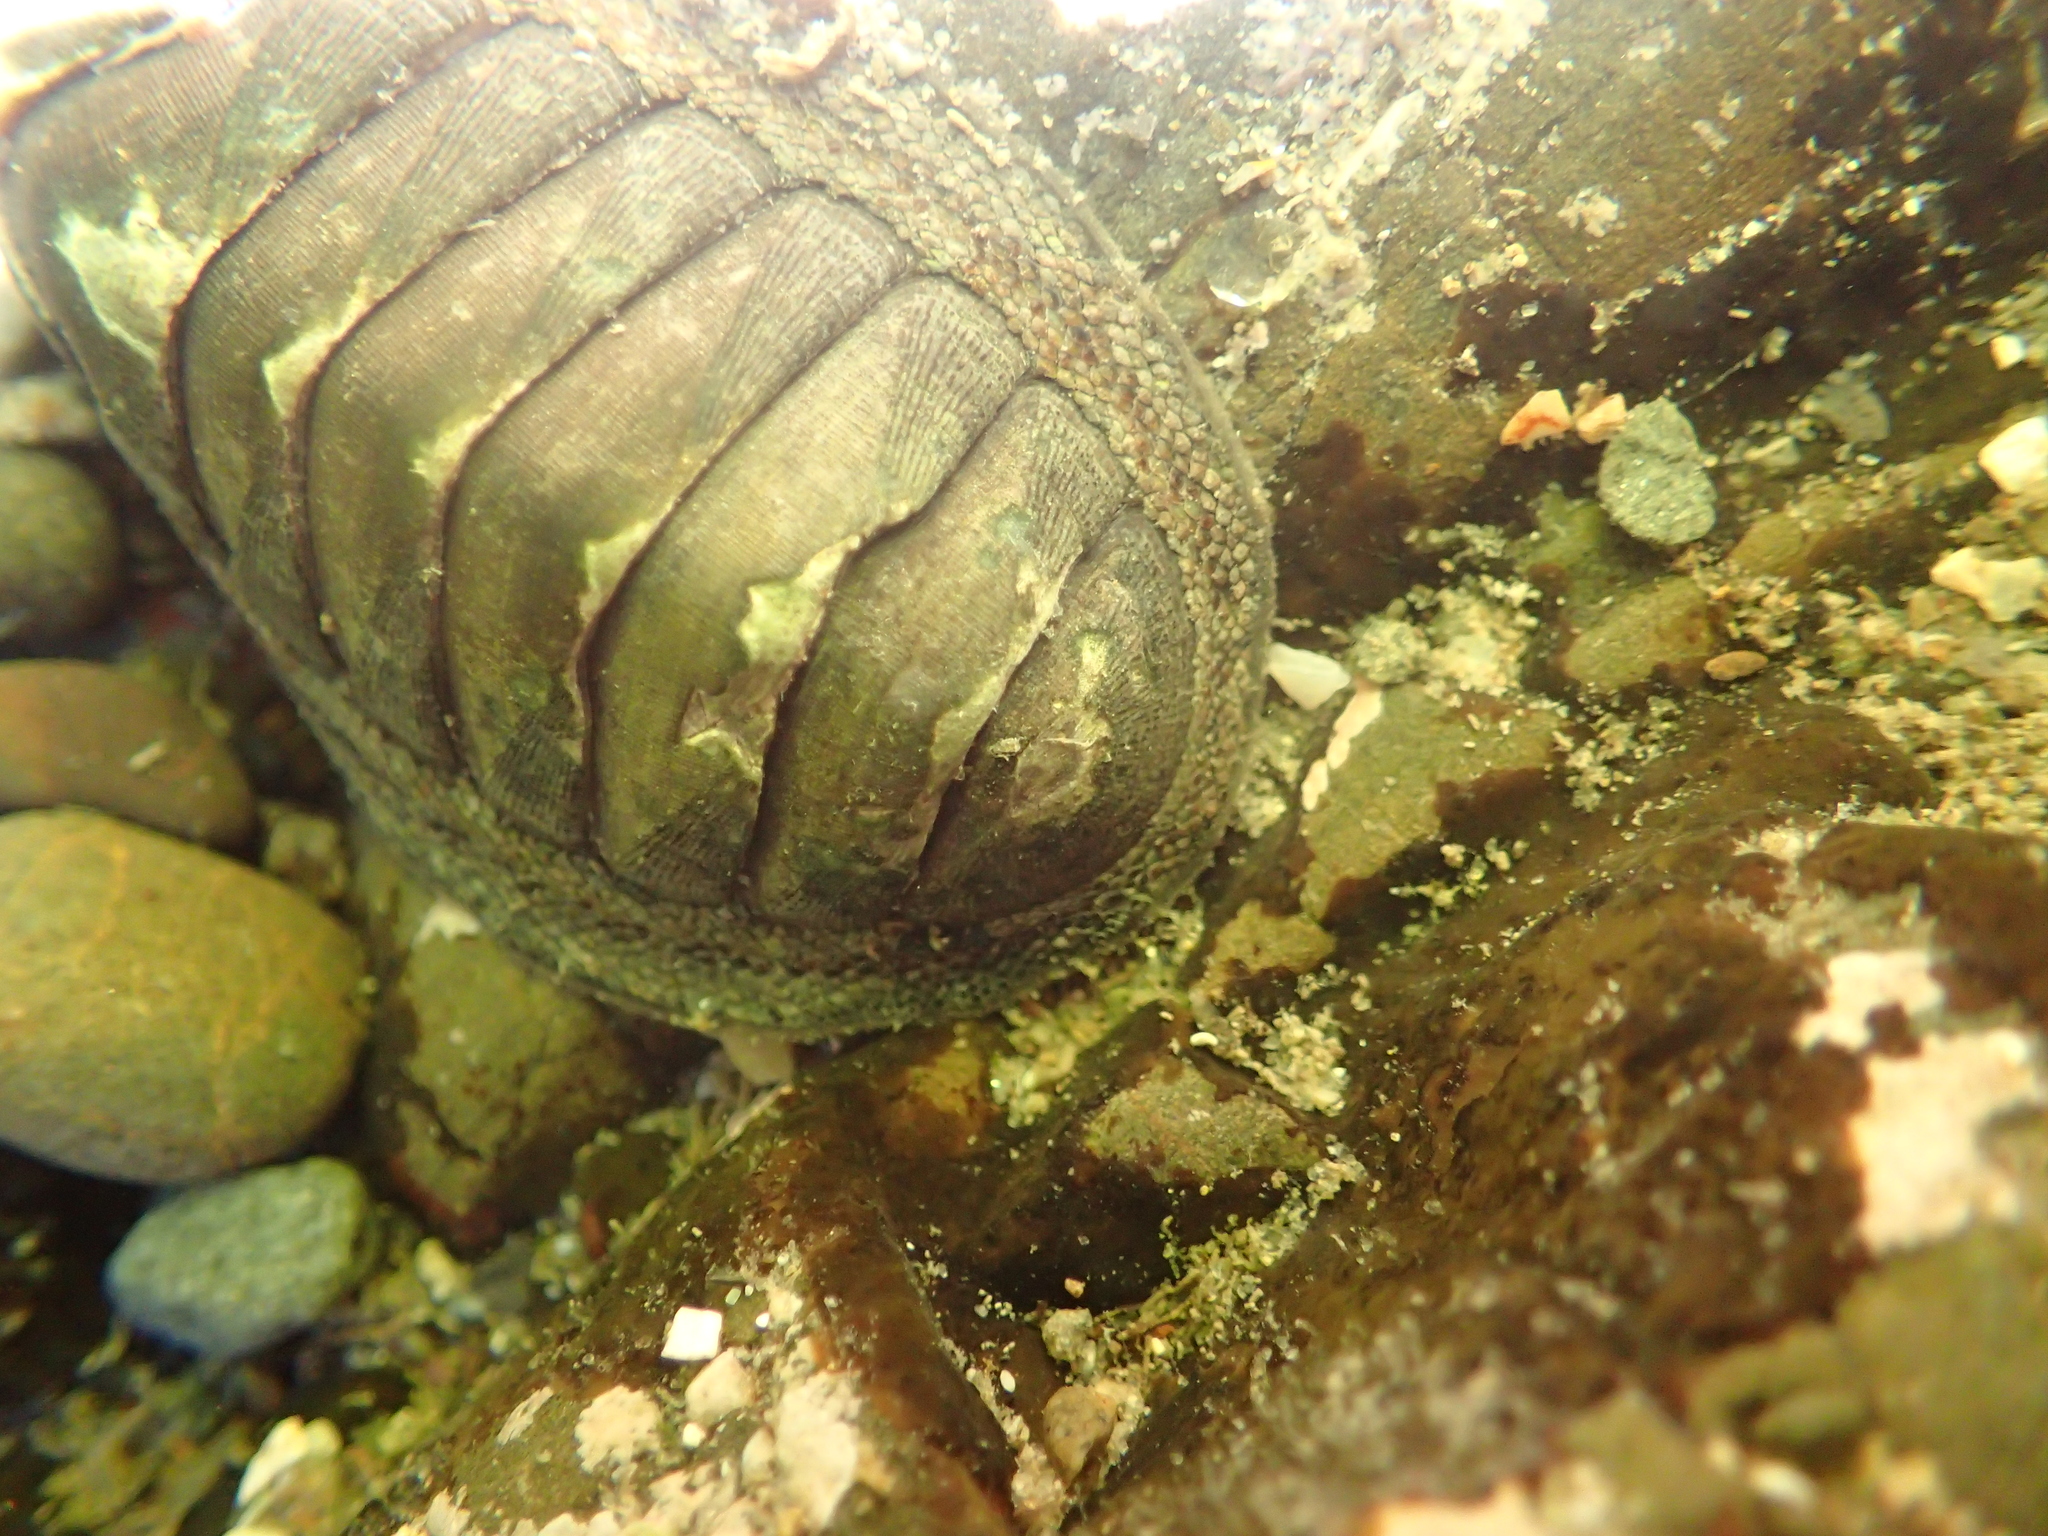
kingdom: Animalia
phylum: Mollusca
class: Polyplacophora
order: Chitonida
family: Chitonidae
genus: Chiton
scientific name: Chiton glaucus
